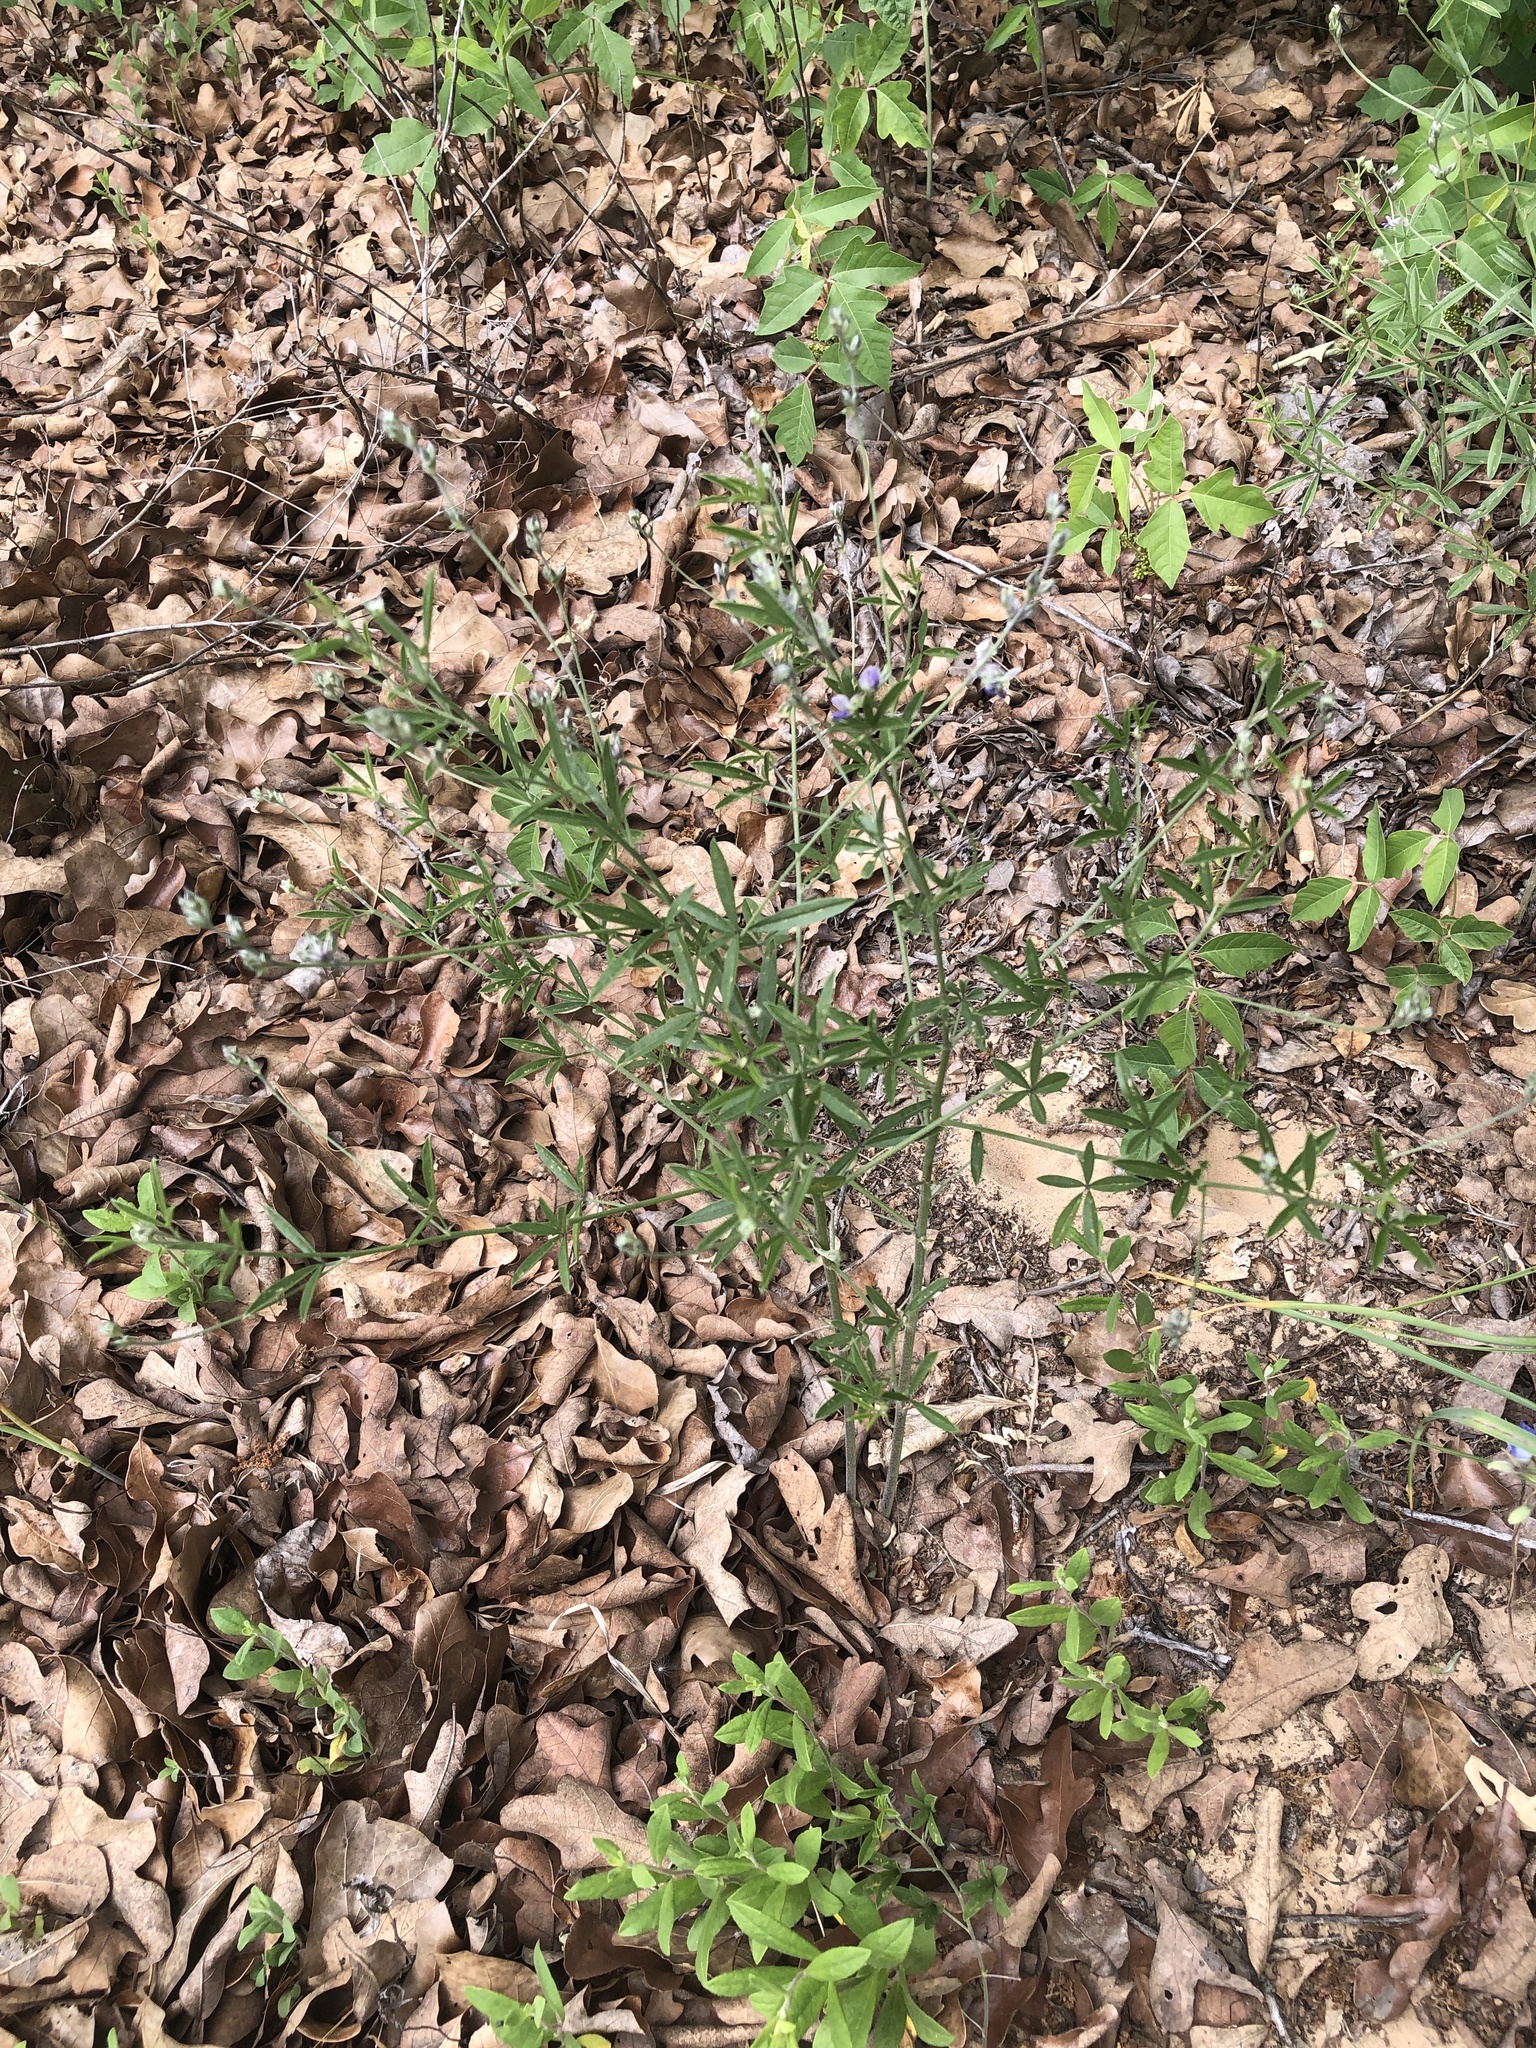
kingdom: Plantae
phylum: Tracheophyta
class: Magnoliopsida
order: Fabales
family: Fabaceae
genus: Pediomelum
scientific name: Pediomelum digitatum
